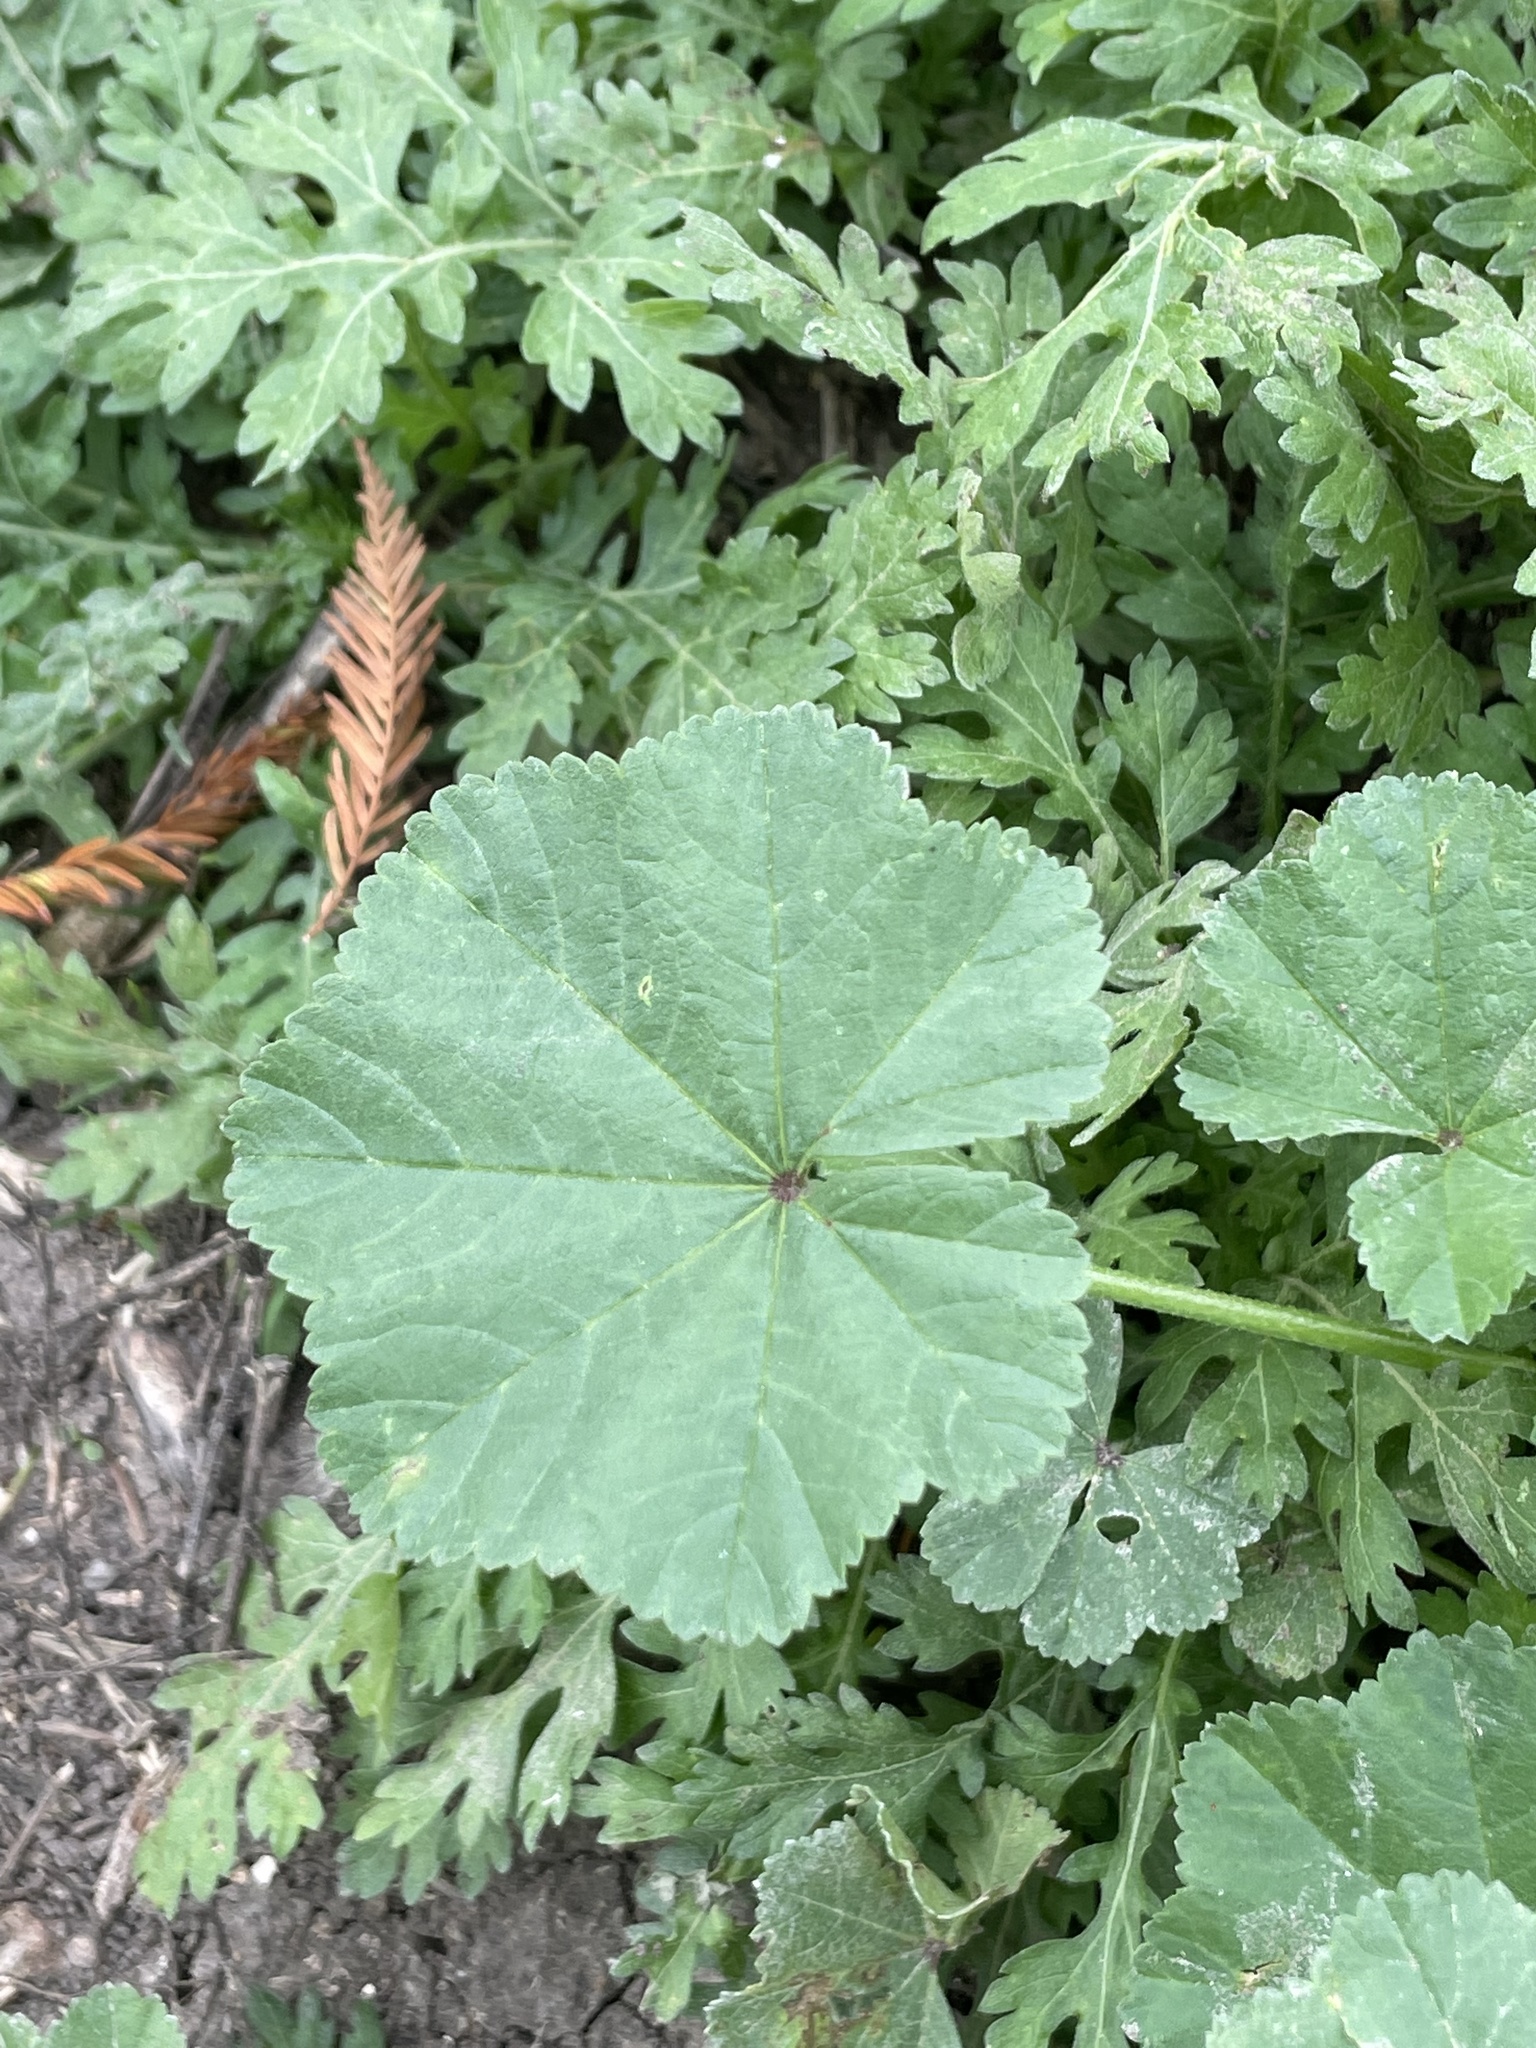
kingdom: Plantae
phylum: Tracheophyta
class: Magnoliopsida
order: Malvales
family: Malvaceae
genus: Malva
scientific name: Malva parviflora
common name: Least mallow
